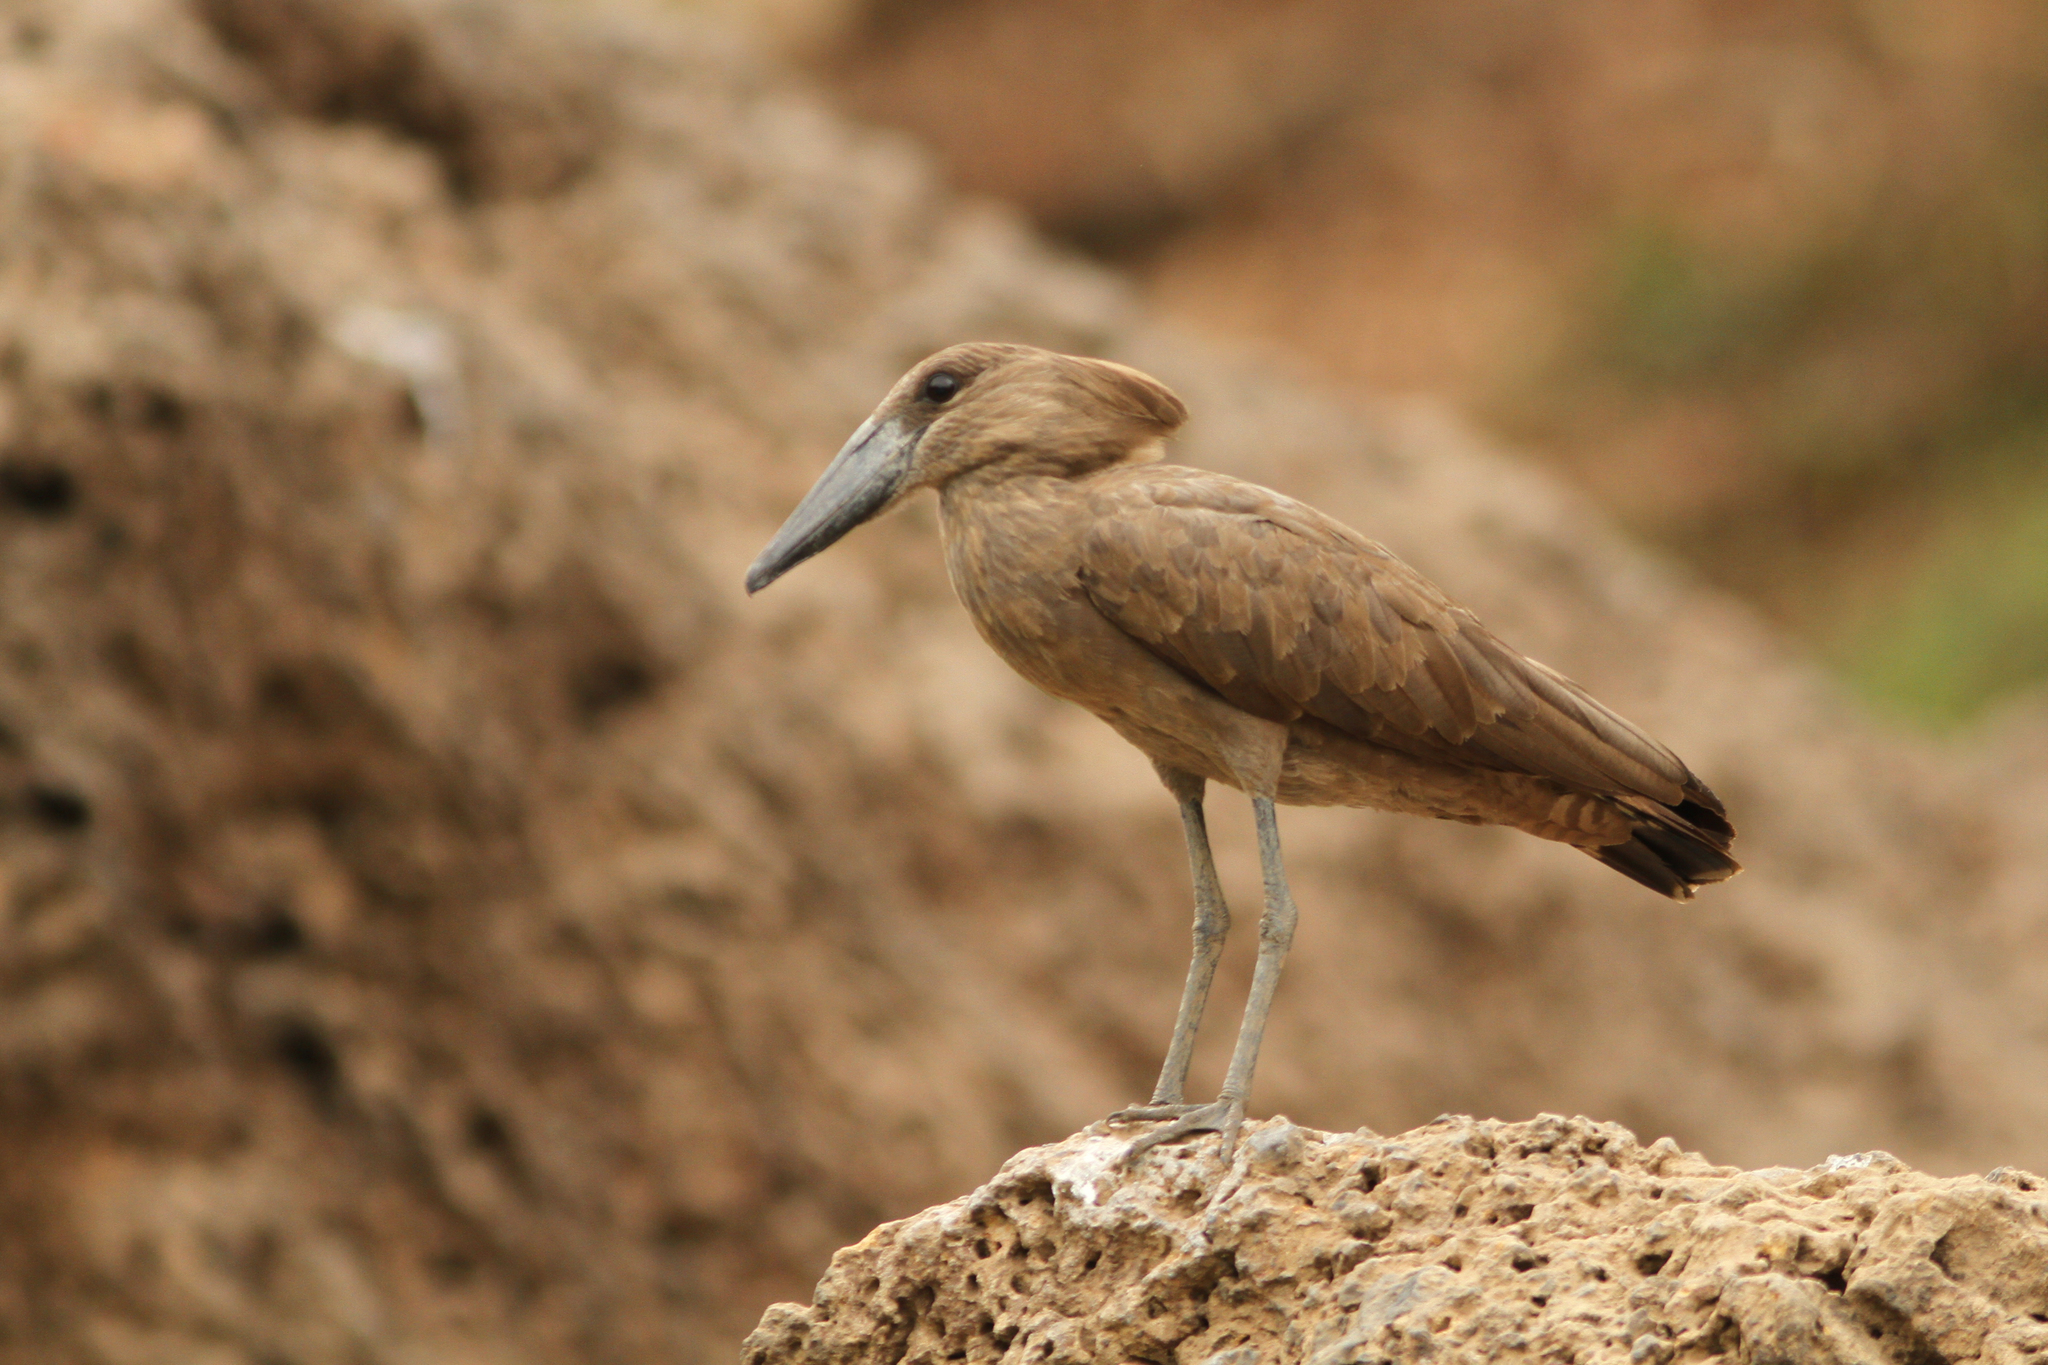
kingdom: Animalia
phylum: Chordata
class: Aves
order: Pelecaniformes
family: Scopidae
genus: Scopus
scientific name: Scopus umbretta
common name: Hamerkop
